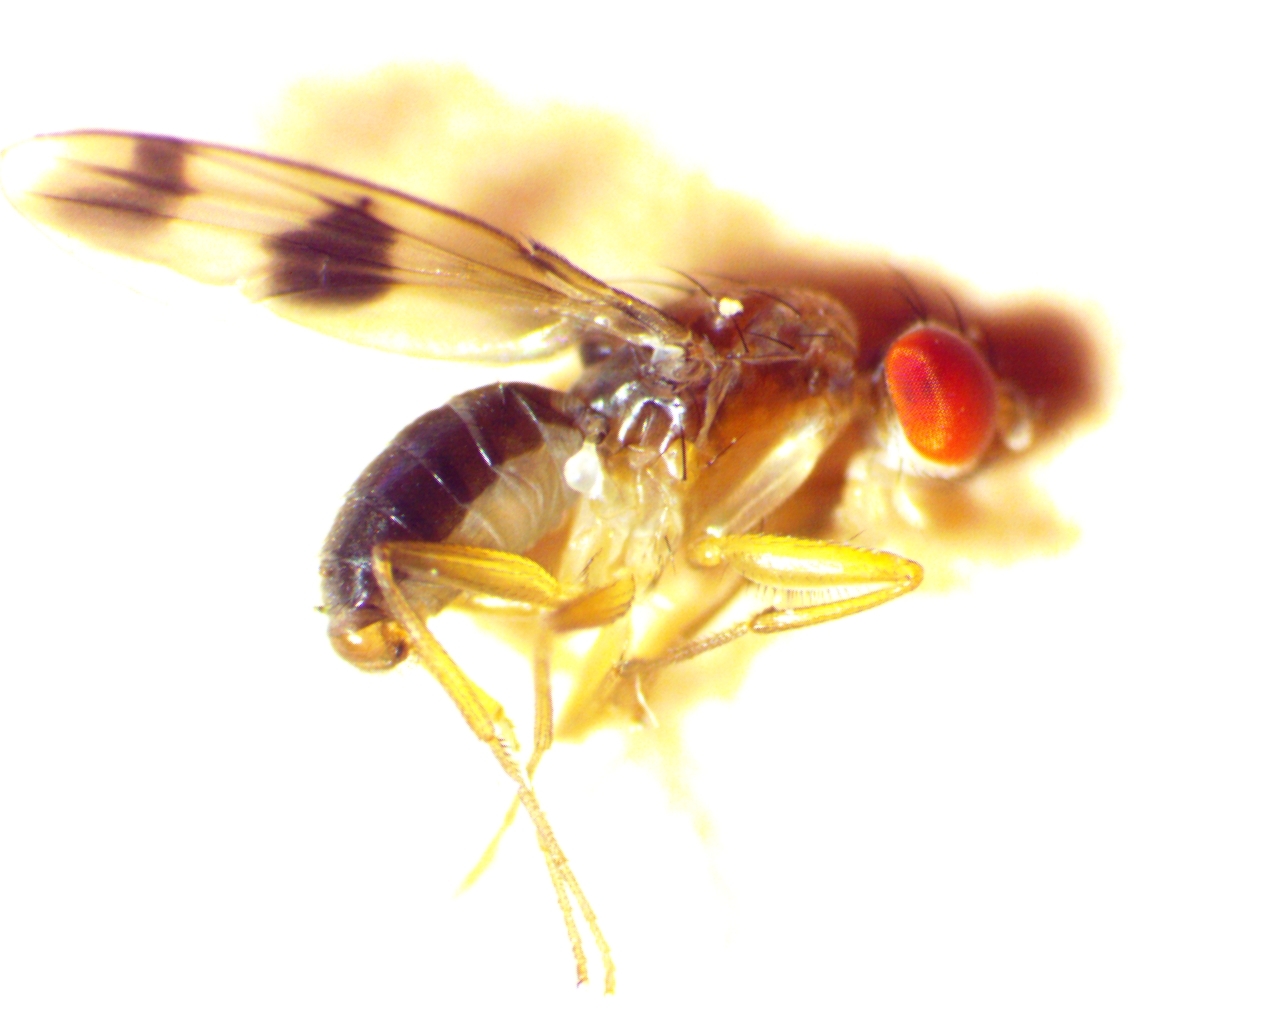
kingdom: Animalia
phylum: Arthropoda
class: Insecta
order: Diptera
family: Drosophilidae
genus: Chymomyza
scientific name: Chymomyza amoena
